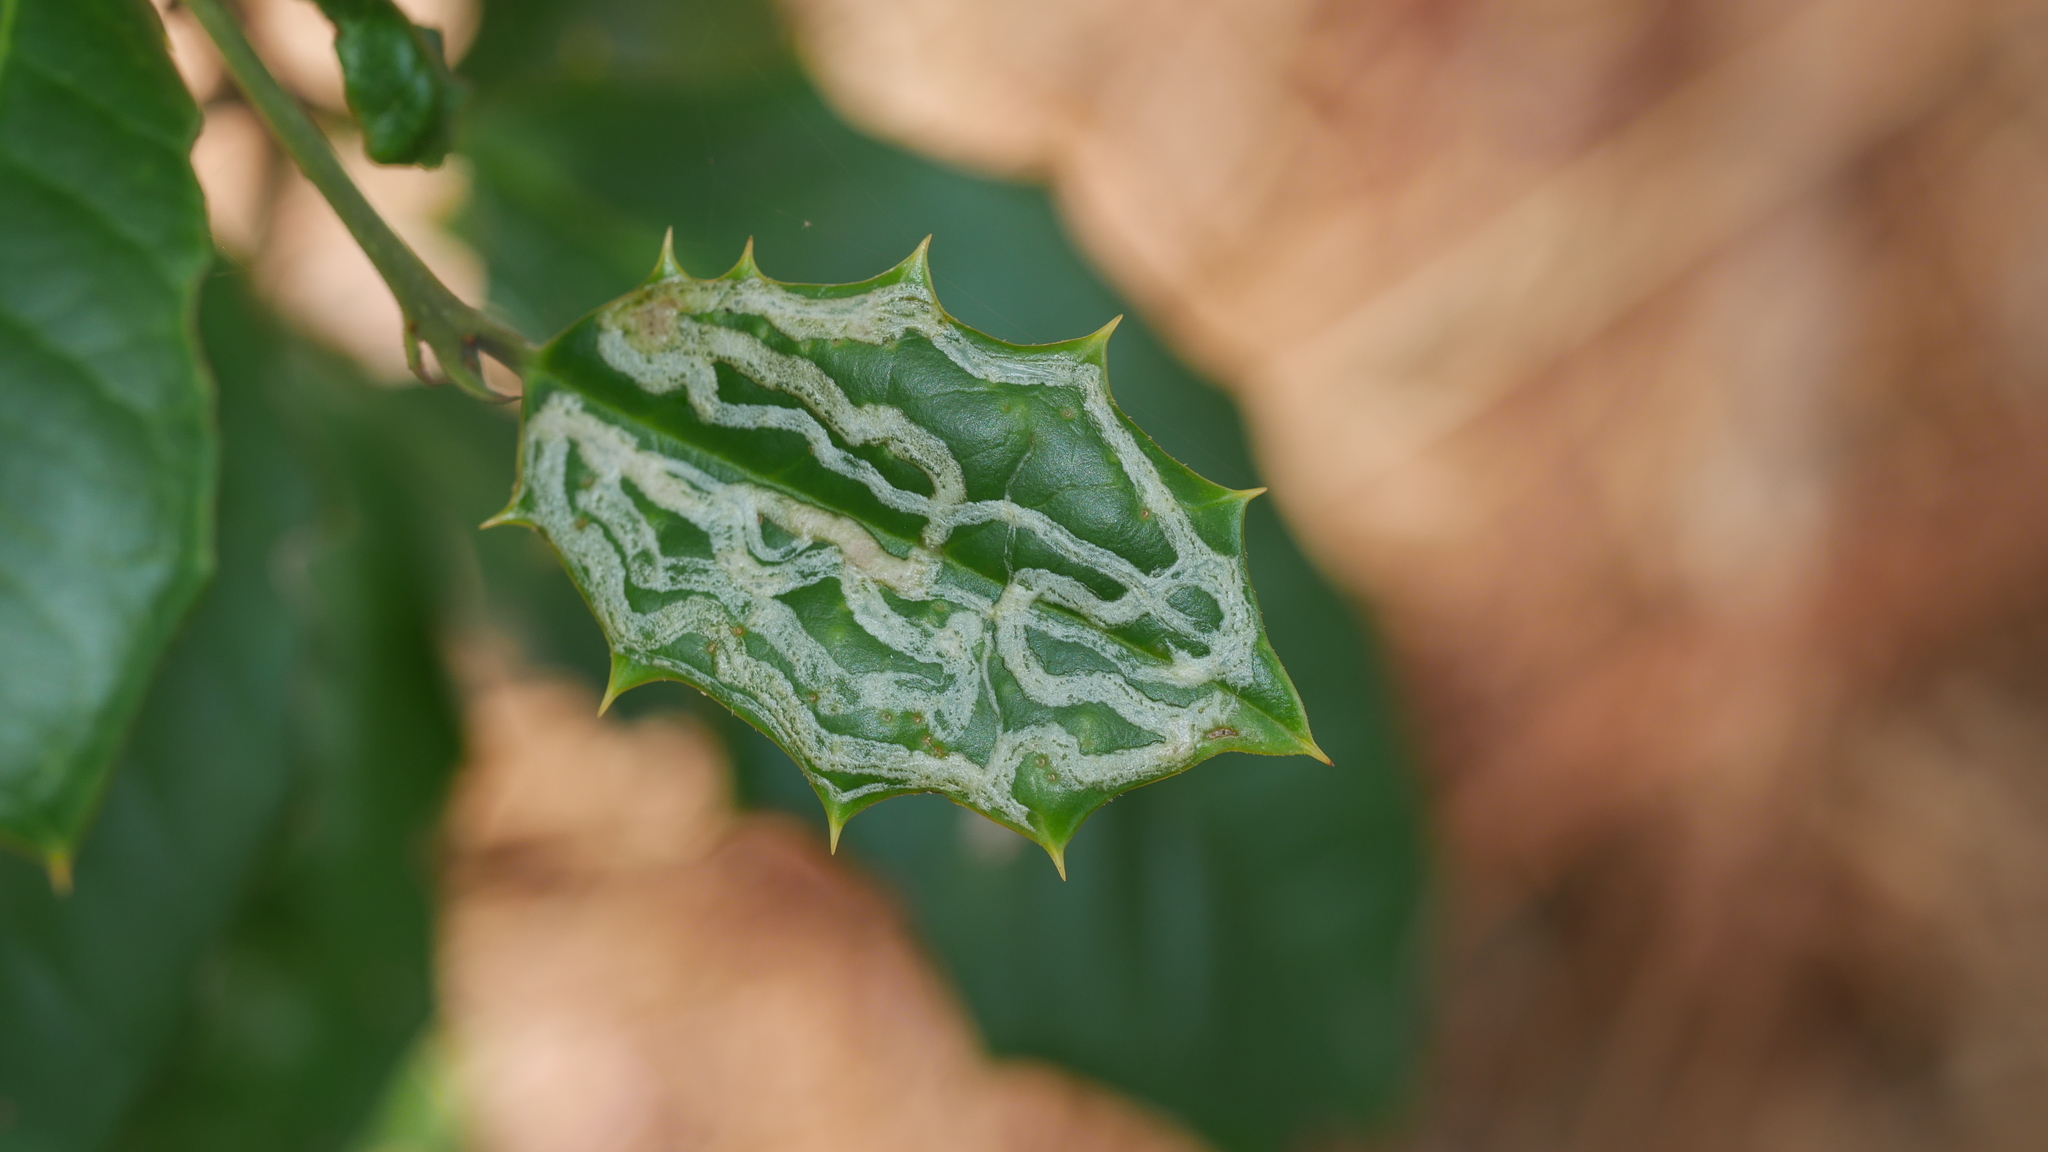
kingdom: Animalia
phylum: Arthropoda
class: Insecta
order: Diptera
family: Agromyzidae
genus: Phytomyza
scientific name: Phytomyza opacae
